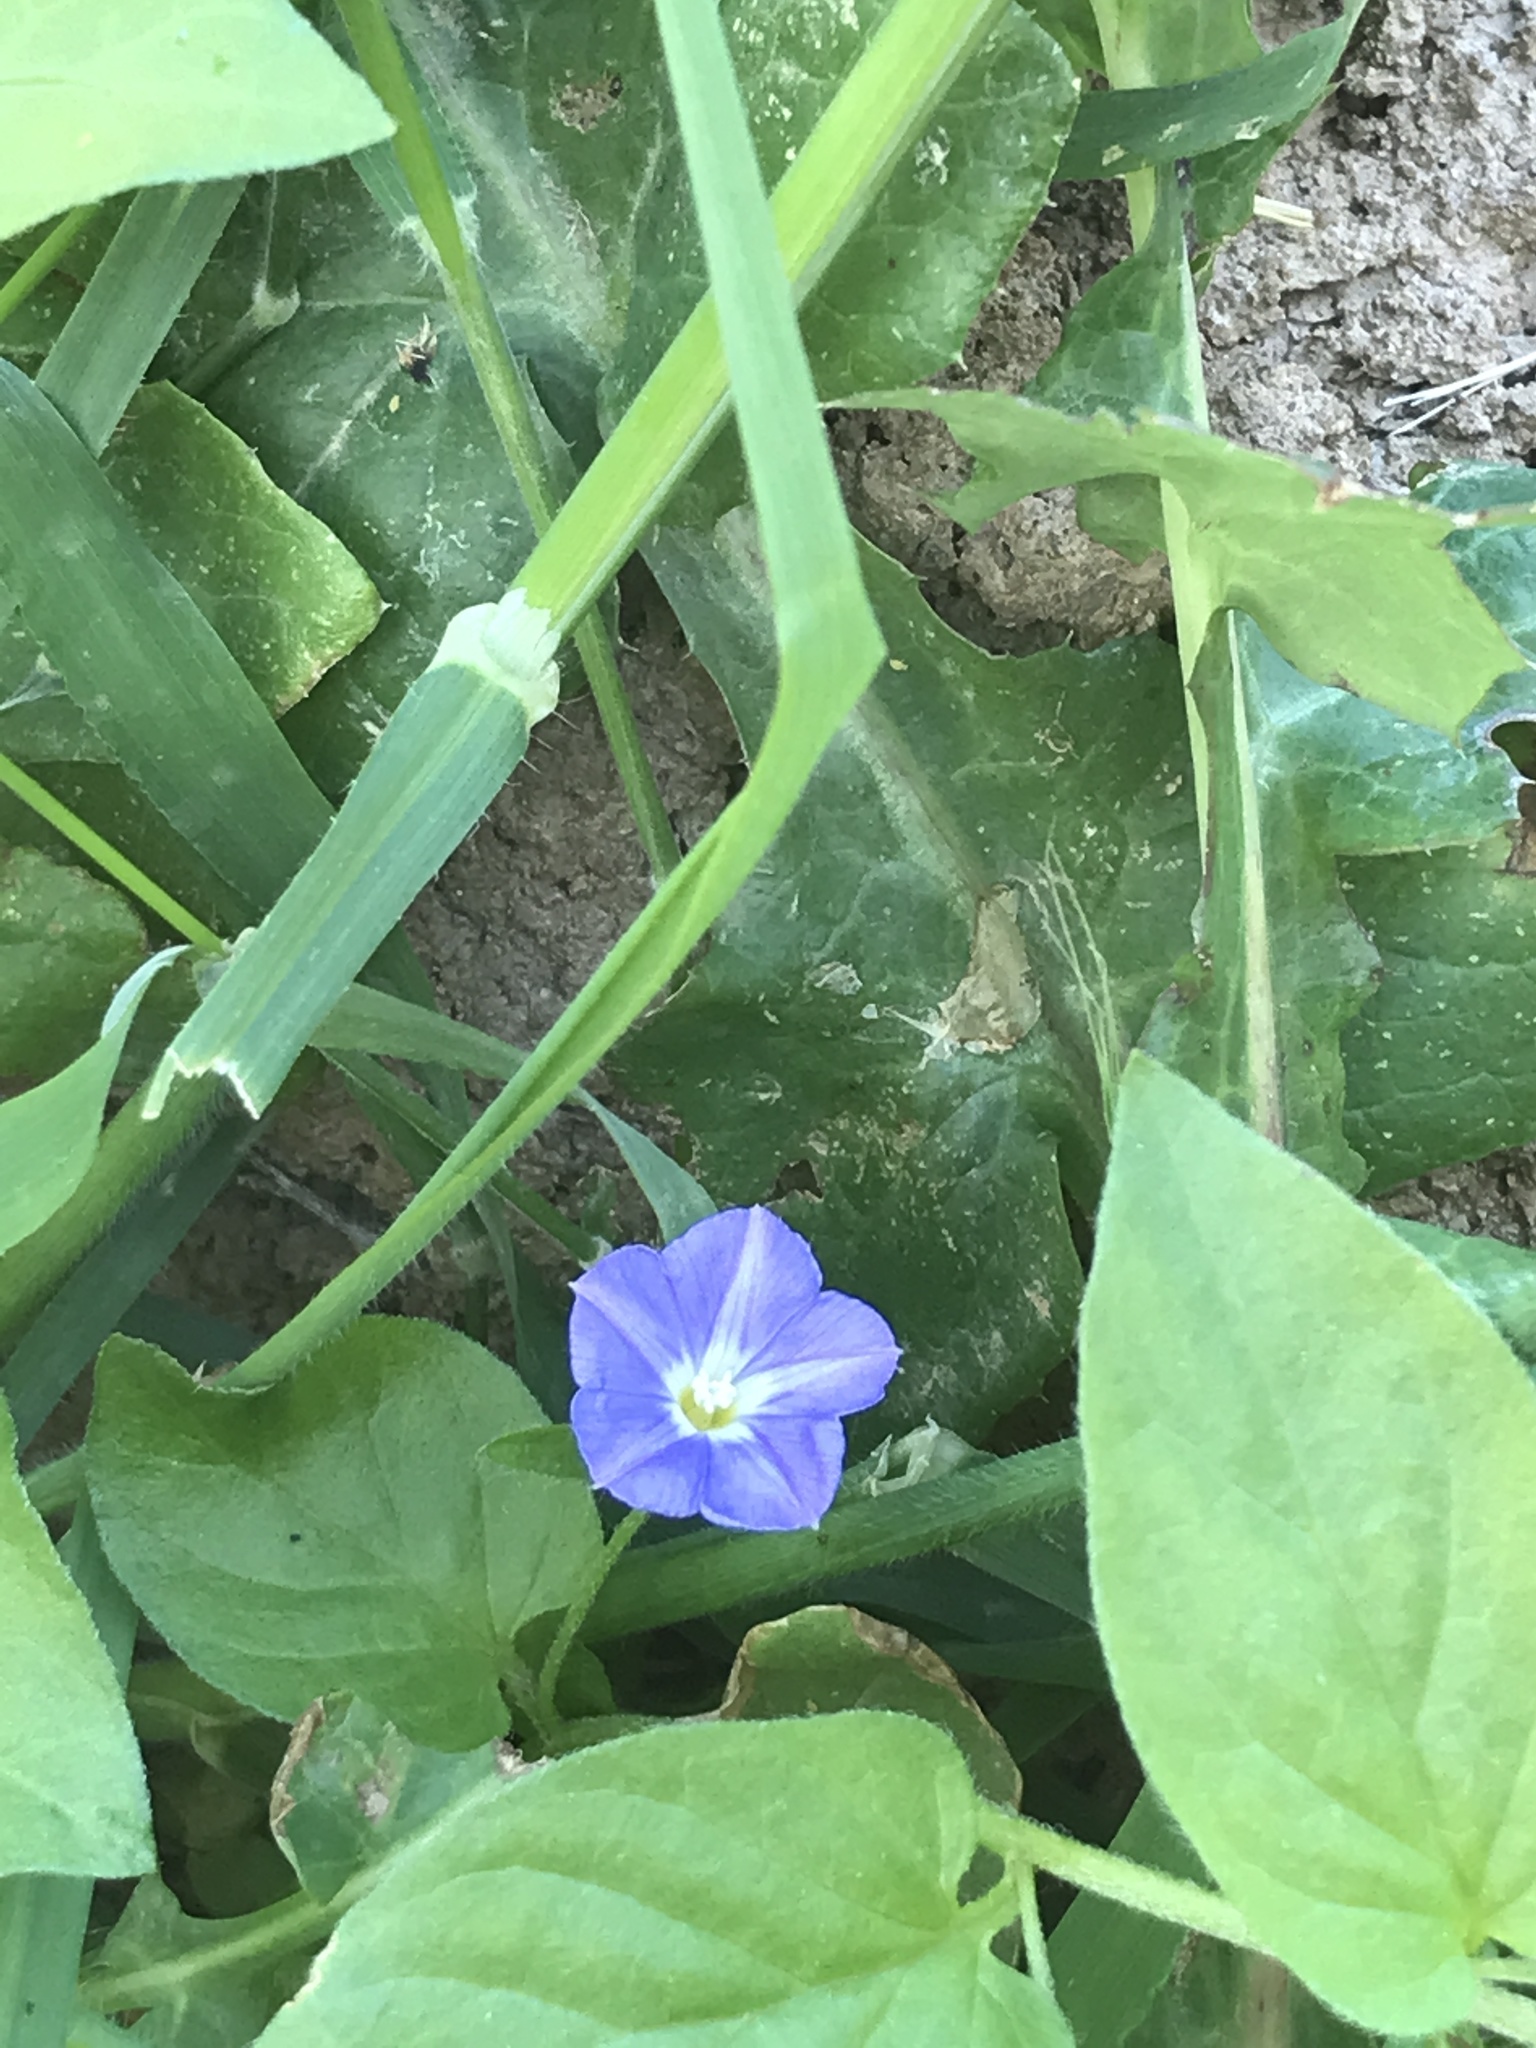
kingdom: Plantae
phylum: Tracheophyta
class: Magnoliopsida
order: Solanales
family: Convolvulaceae
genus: Convolvulus
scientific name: Convolvulus siculus
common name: Small blue-convolvulus
